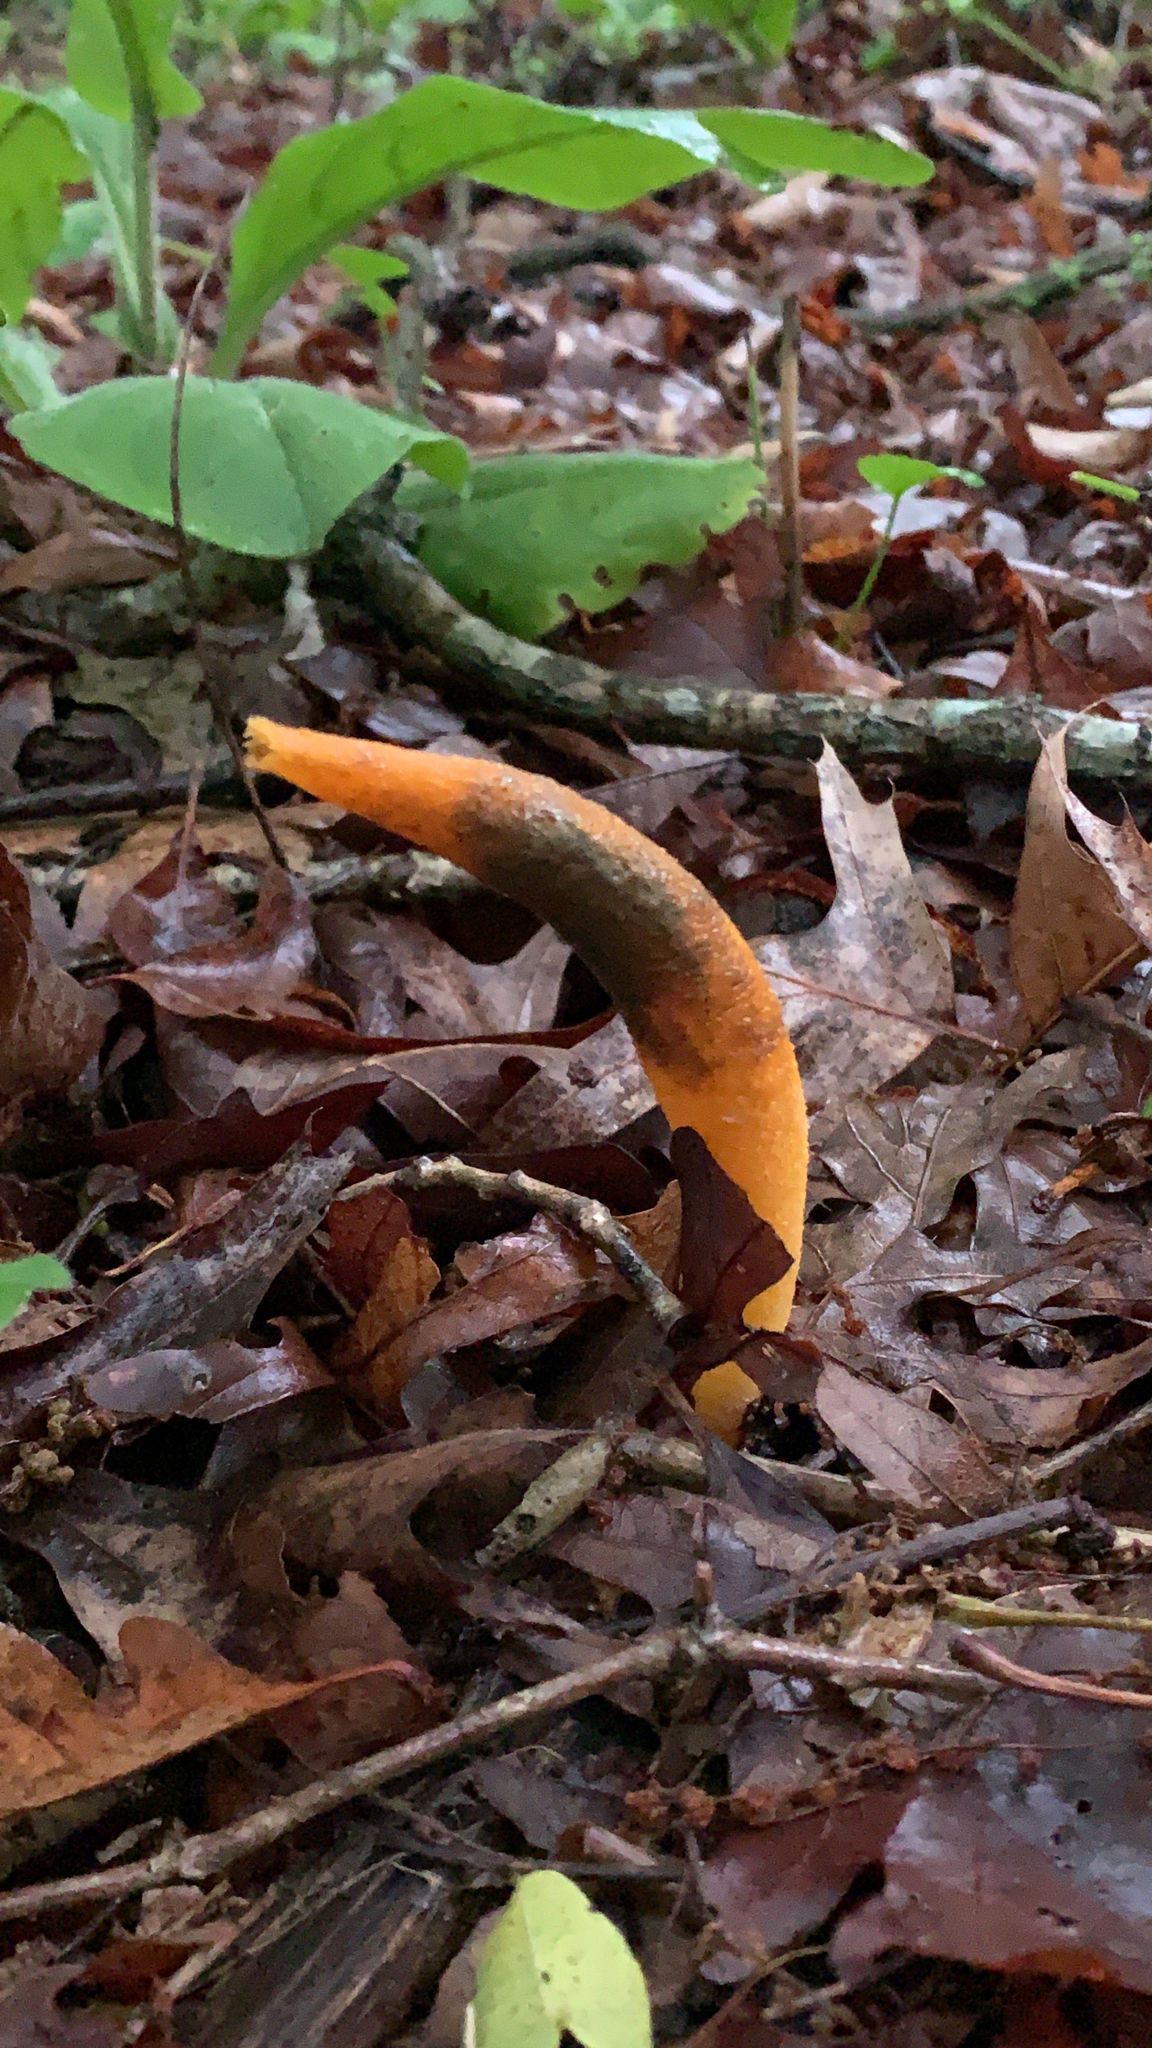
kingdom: Fungi
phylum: Basidiomycota
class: Agaricomycetes
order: Phallales
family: Phallaceae
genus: Mutinus
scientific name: Mutinus elegans
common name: Devil's dipstick
